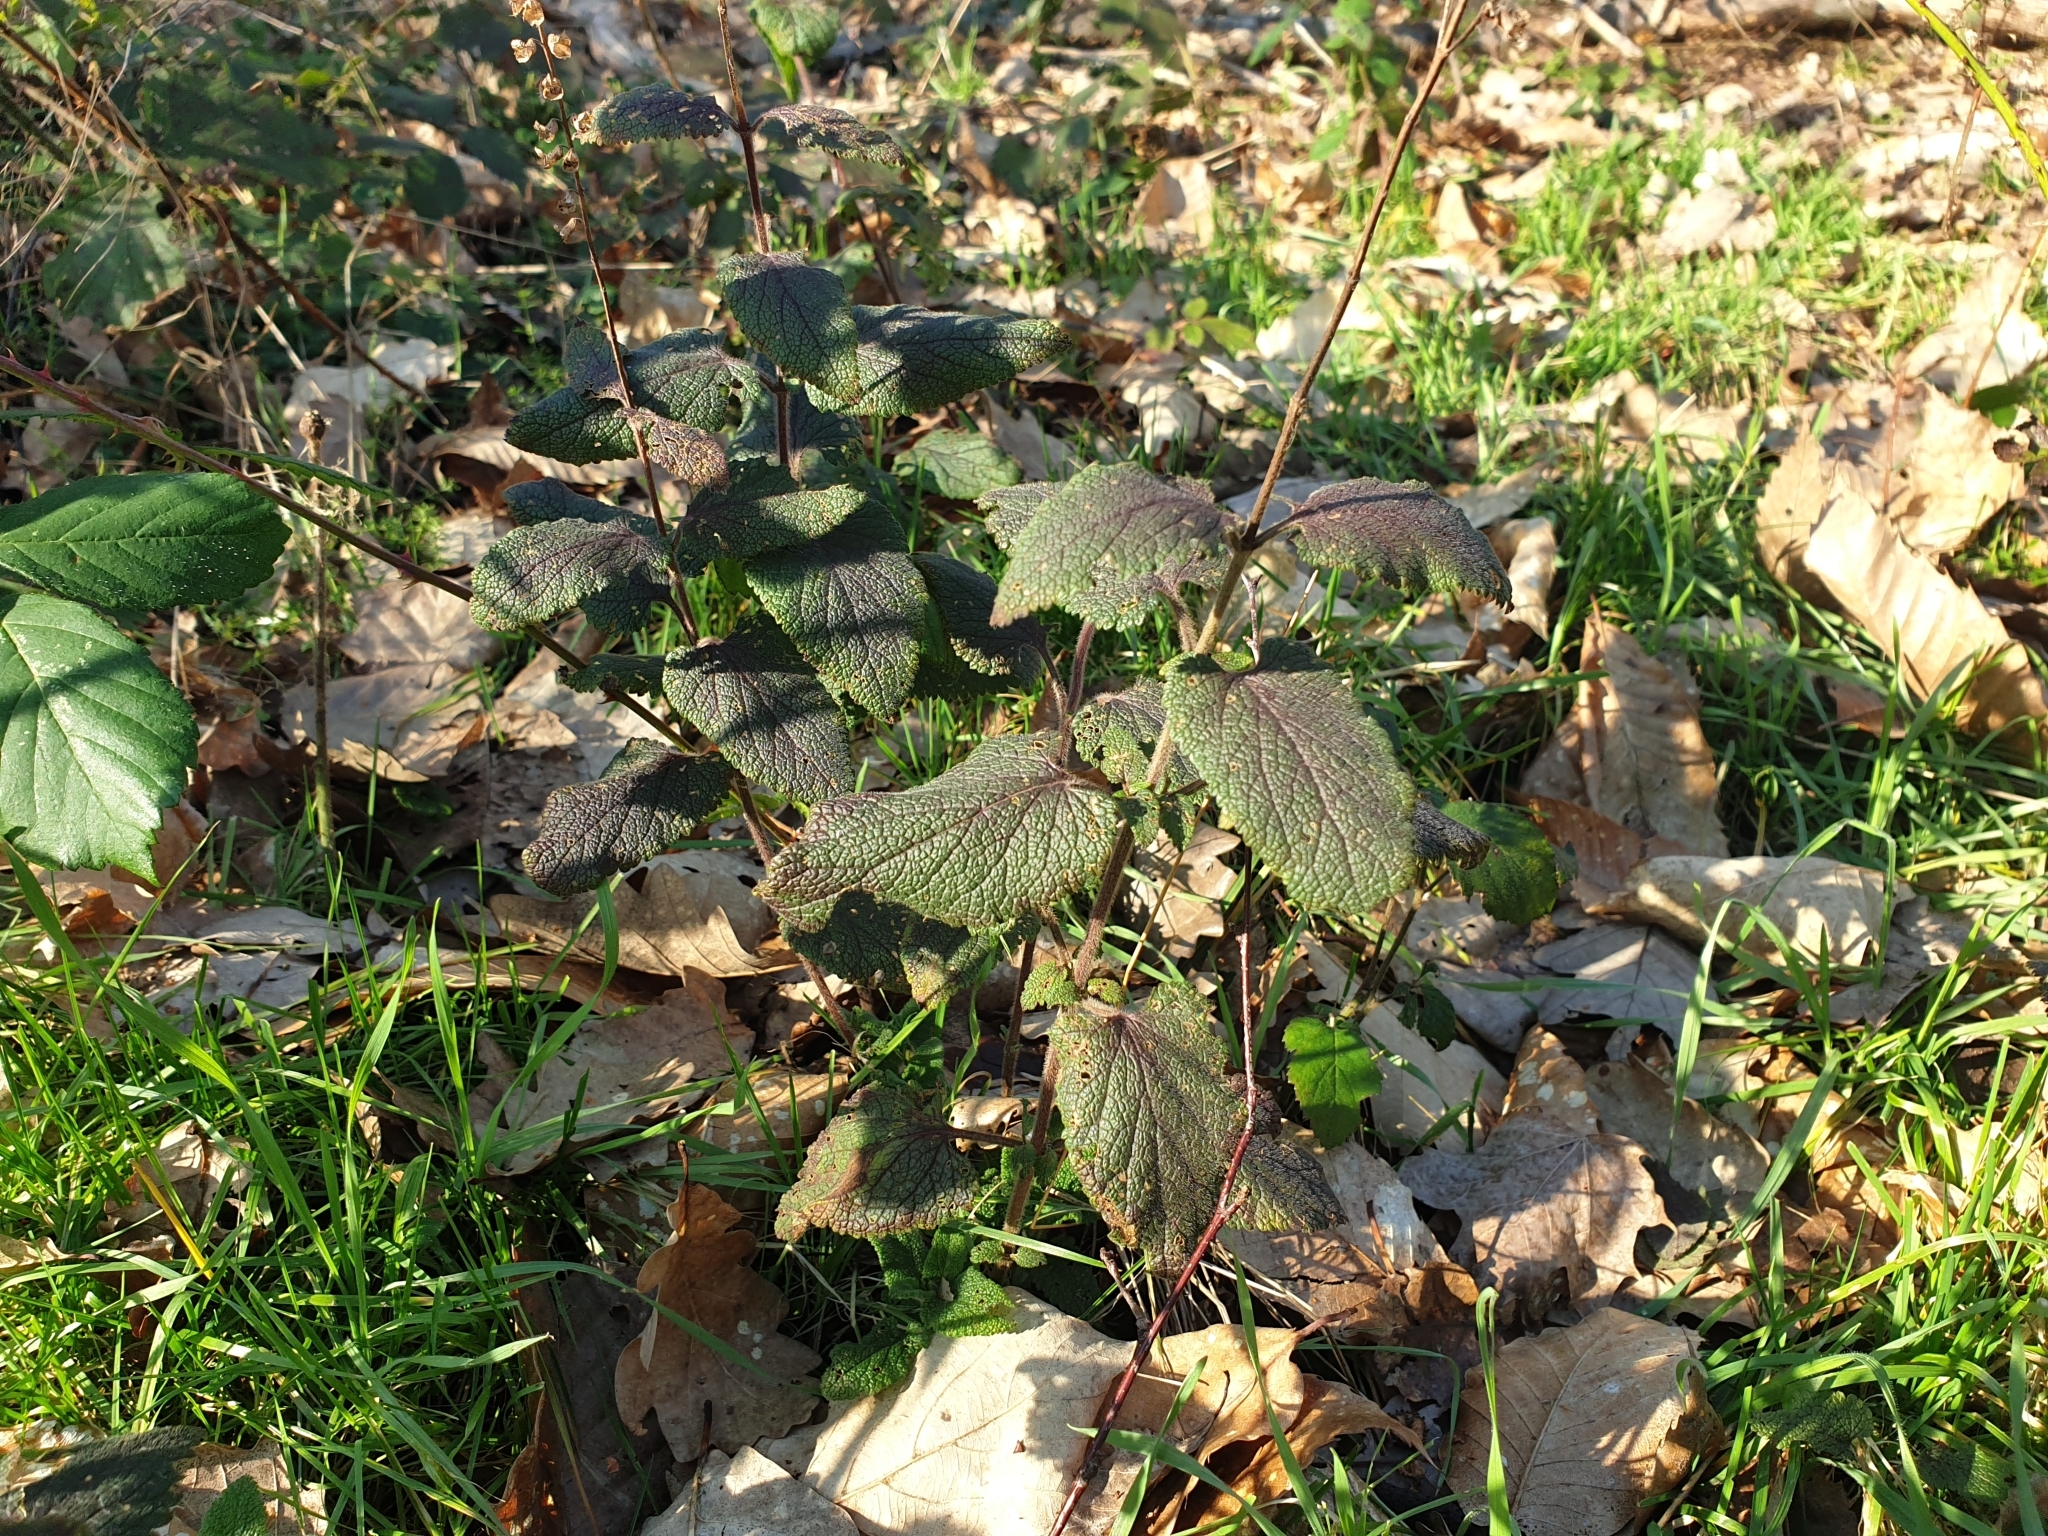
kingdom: Plantae
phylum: Tracheophyta
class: Magnoliopsida
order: Lamiales
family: Lamiaceae
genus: Teucrium
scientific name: Teucrium scorodonia
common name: Woodland germander
